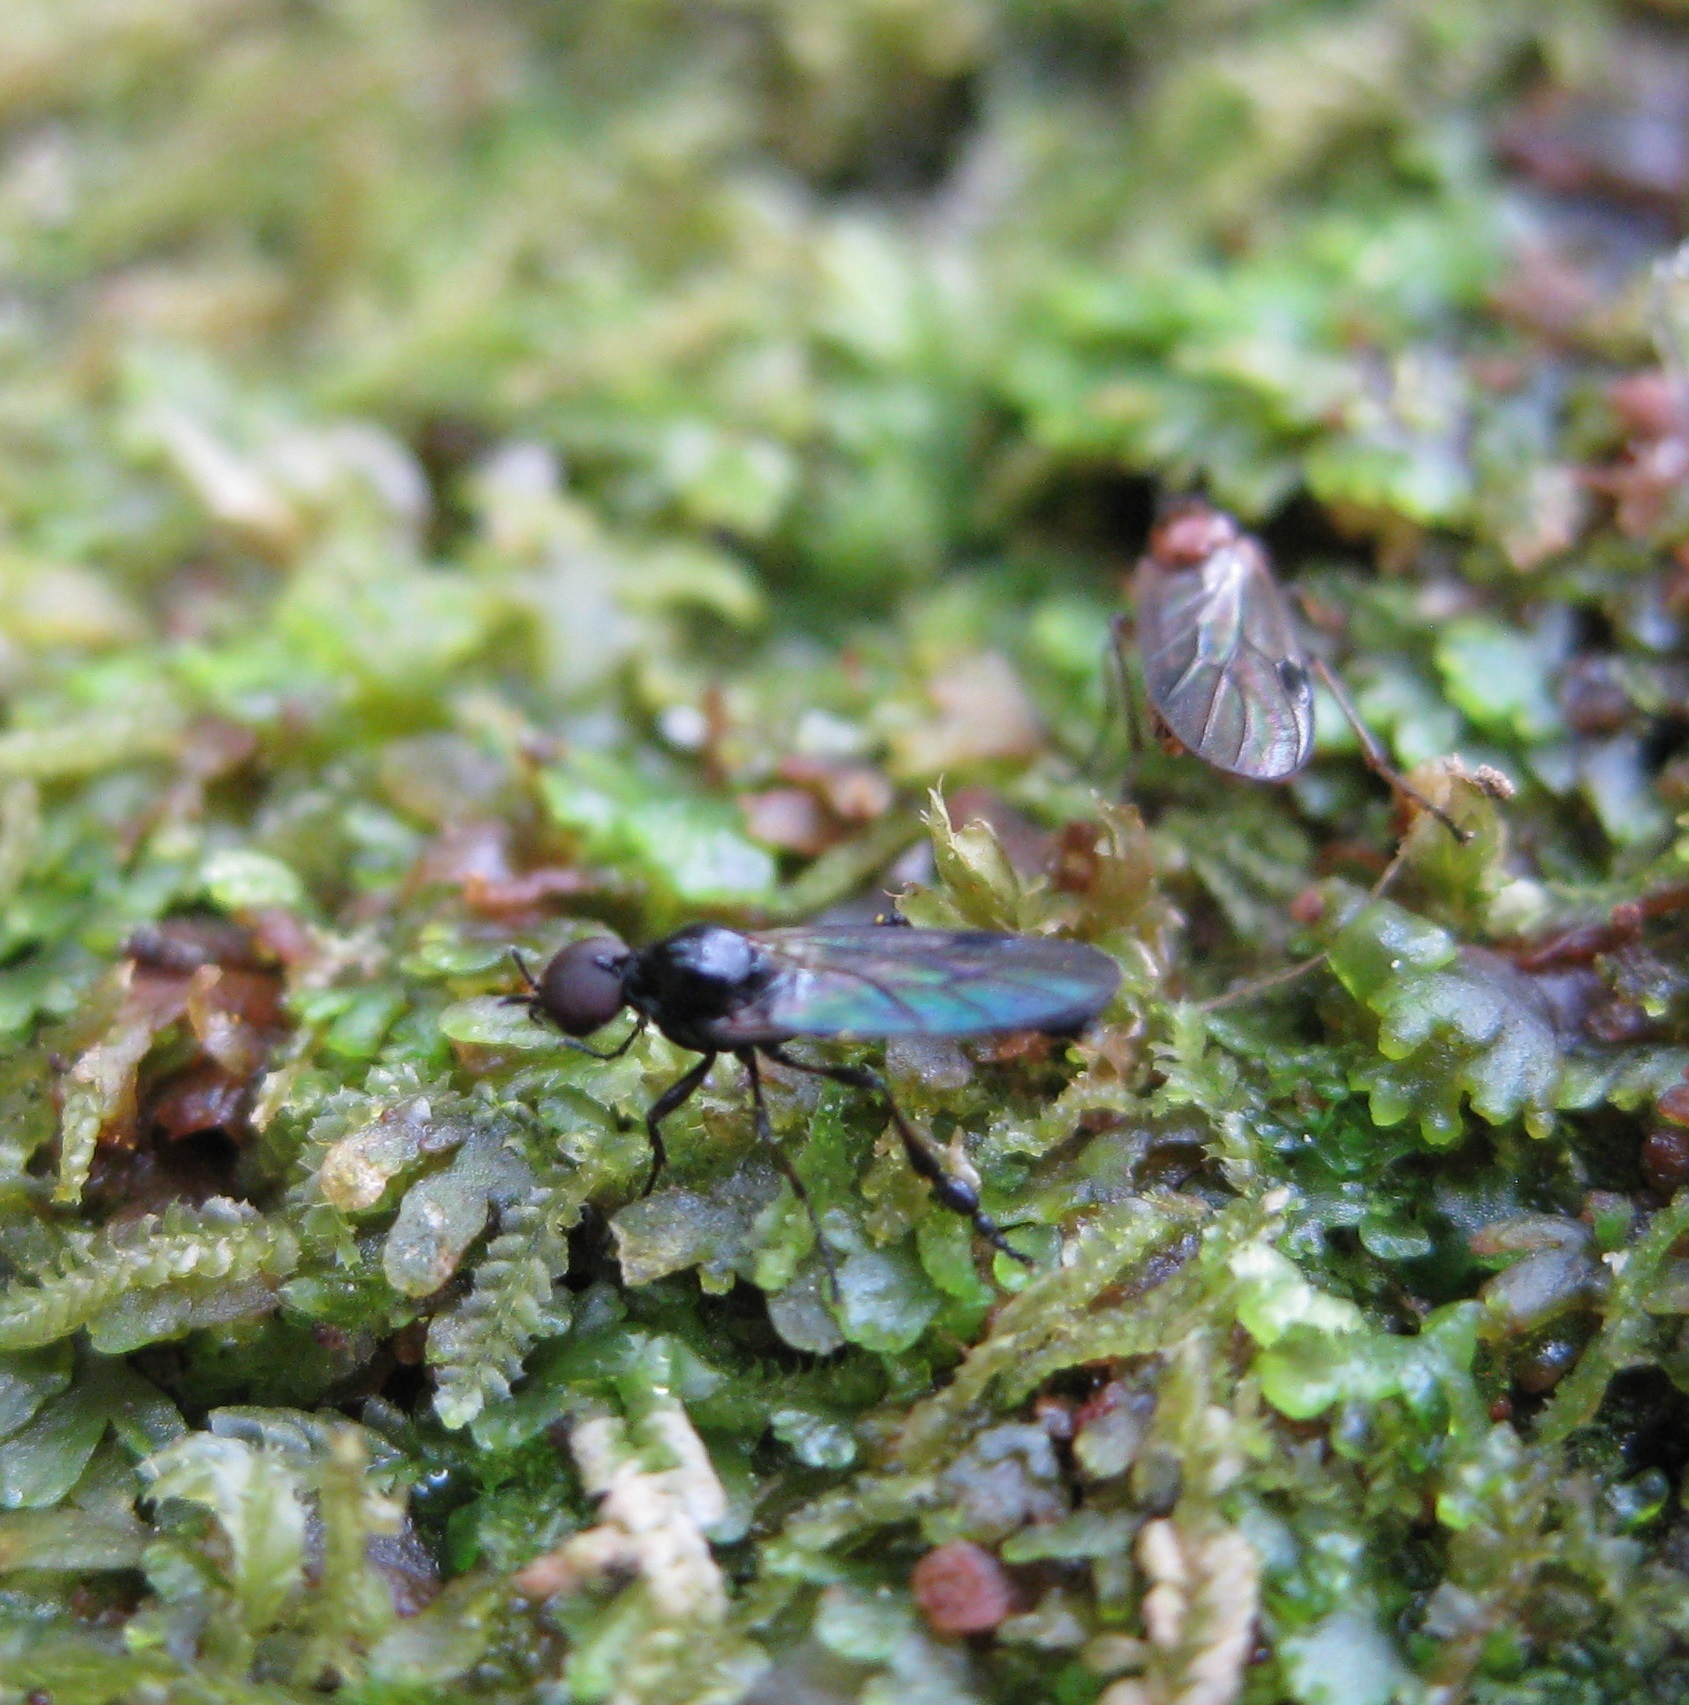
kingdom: Animalia
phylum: Arthropoda
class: Insecta
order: Diptera
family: Bibionidae
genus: Dilophus
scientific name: Dilophus segnis
